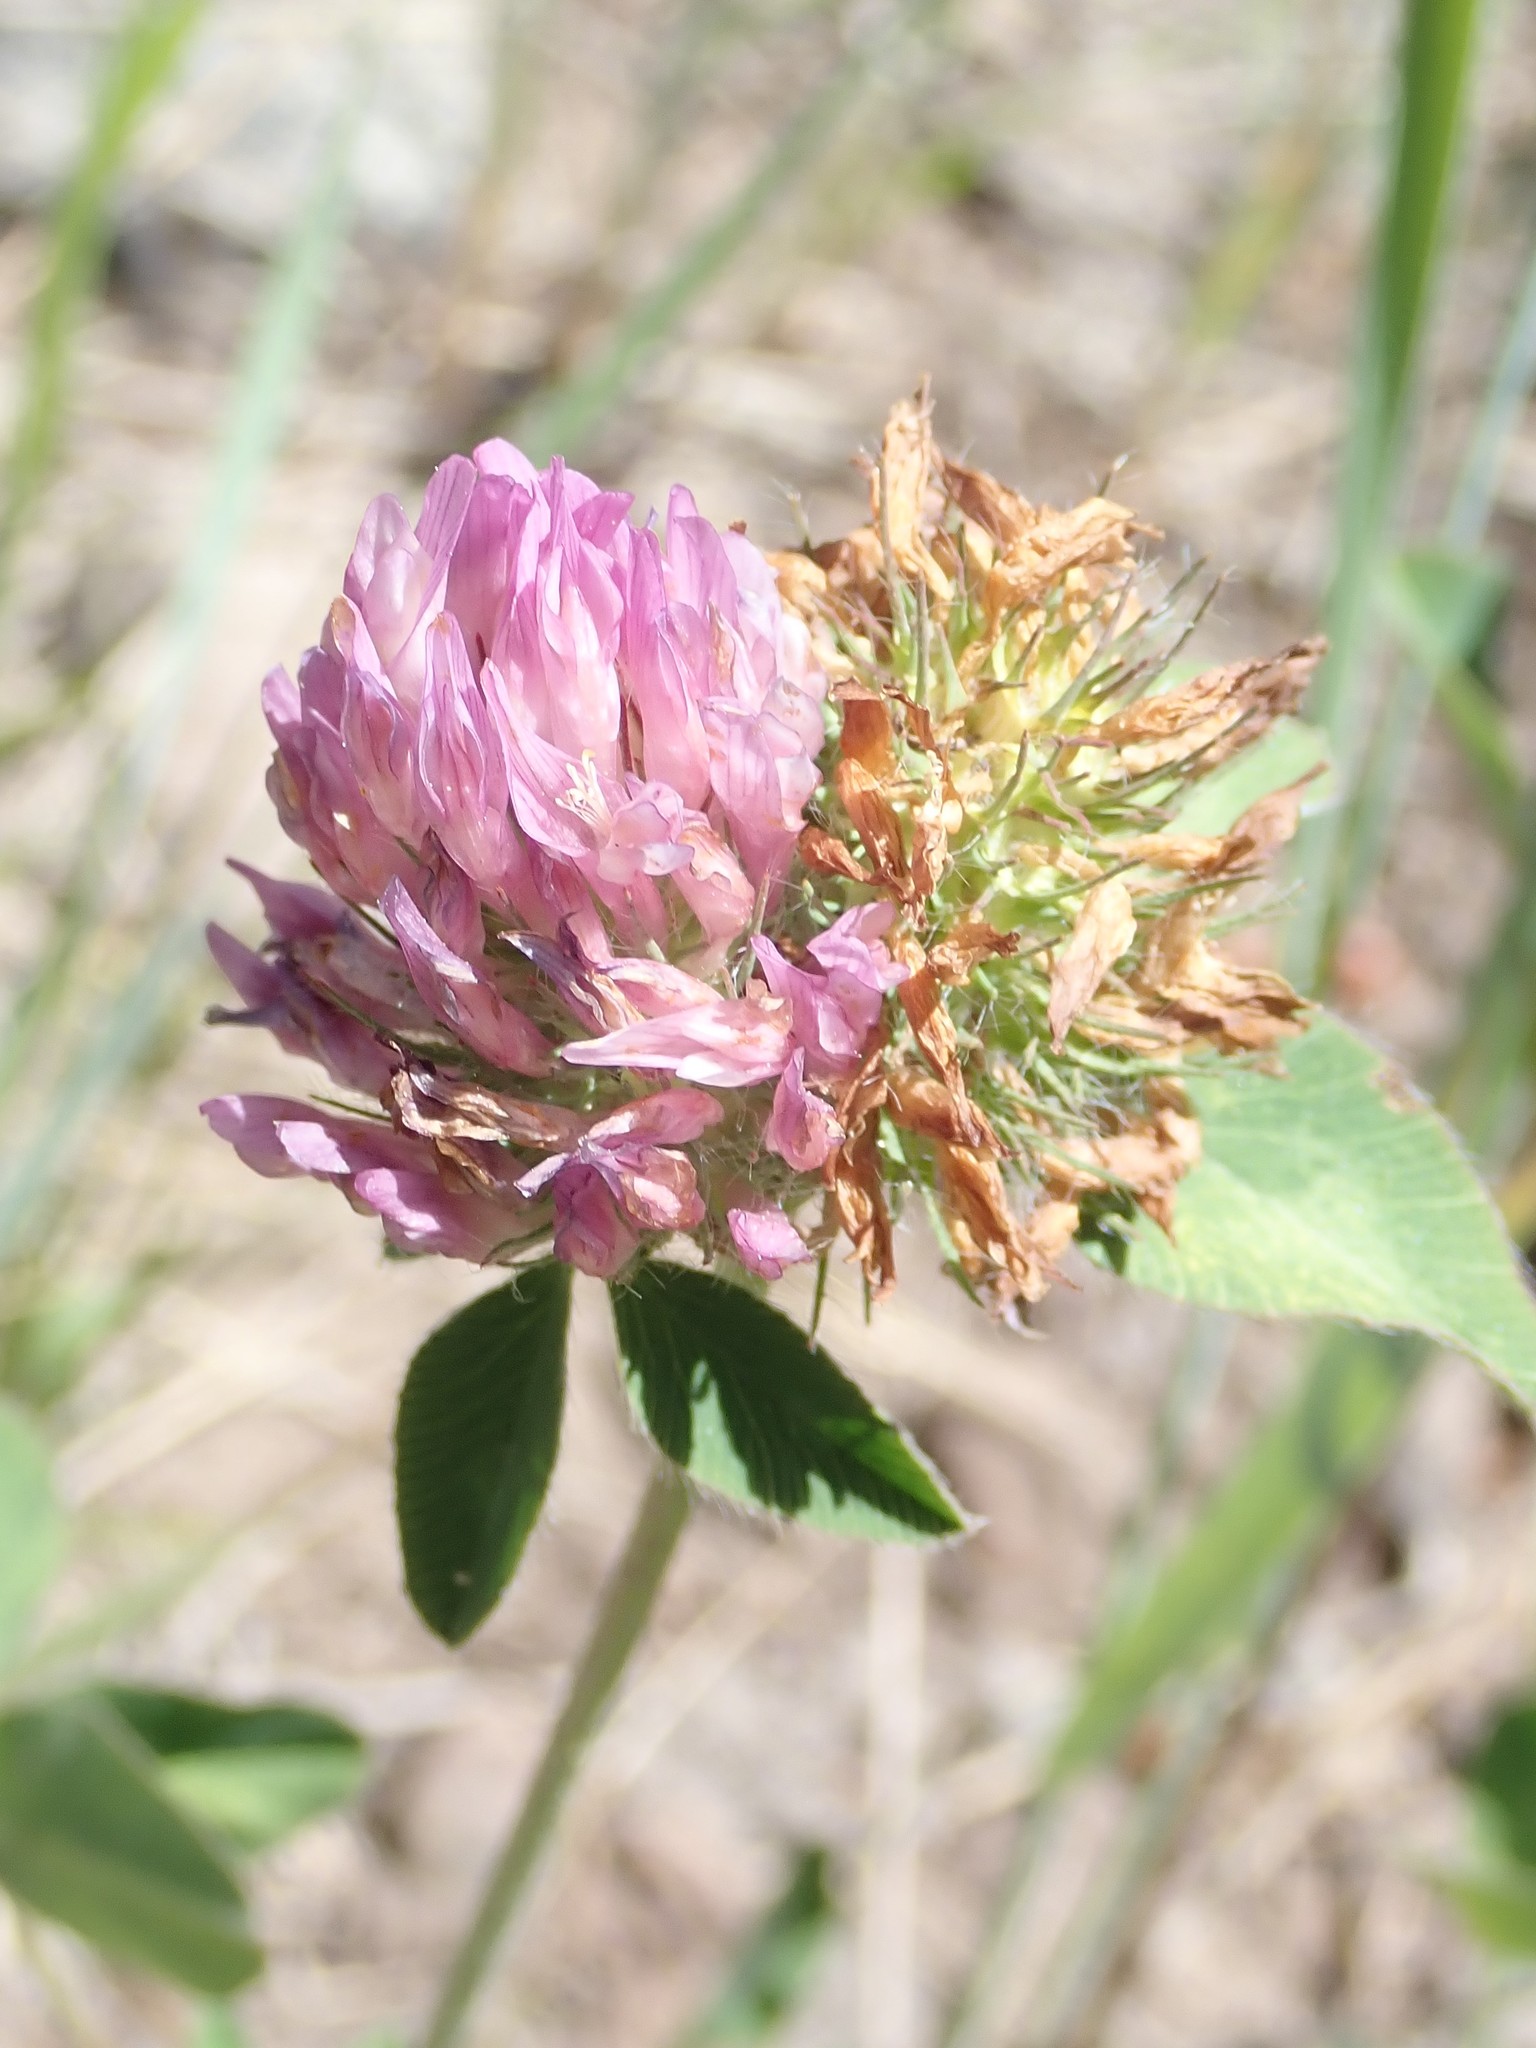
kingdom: Plantae
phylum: Tracheophyta
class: Magnoliopsida
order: Fabales
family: Fabaceae
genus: Trifolium
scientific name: Trifolium pratense
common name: Red clover
